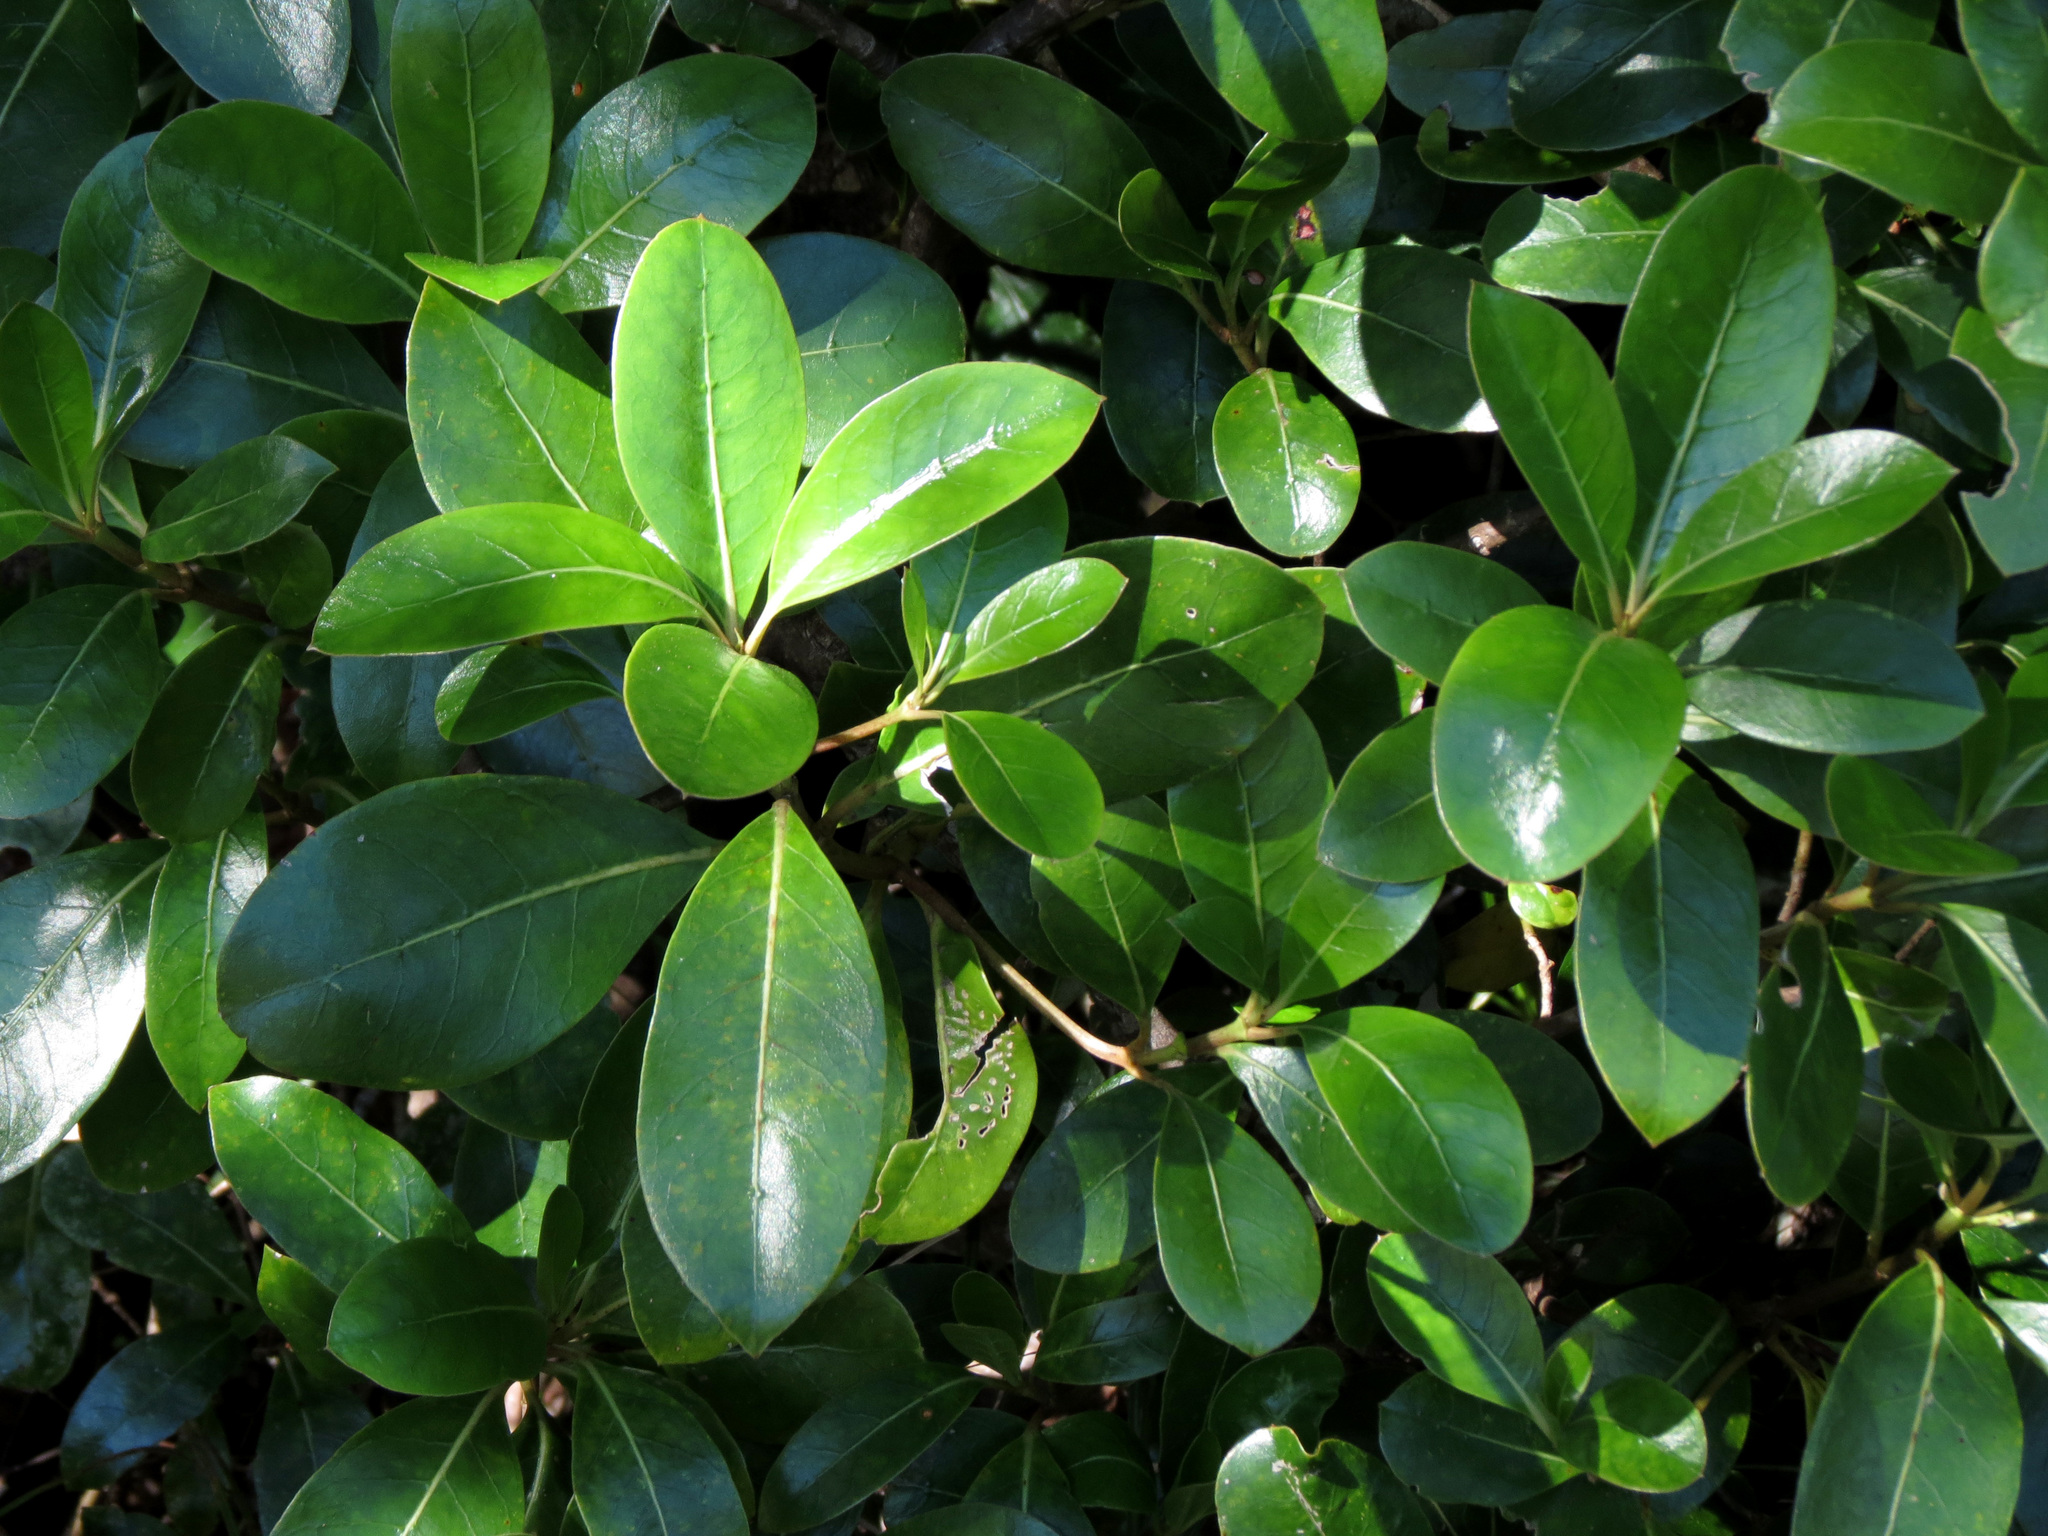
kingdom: Plantae
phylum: Tracheophyta
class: Magnoliopsida
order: Gentianales
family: Rubiaceae
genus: Coprosma
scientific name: Coprosma lucida
